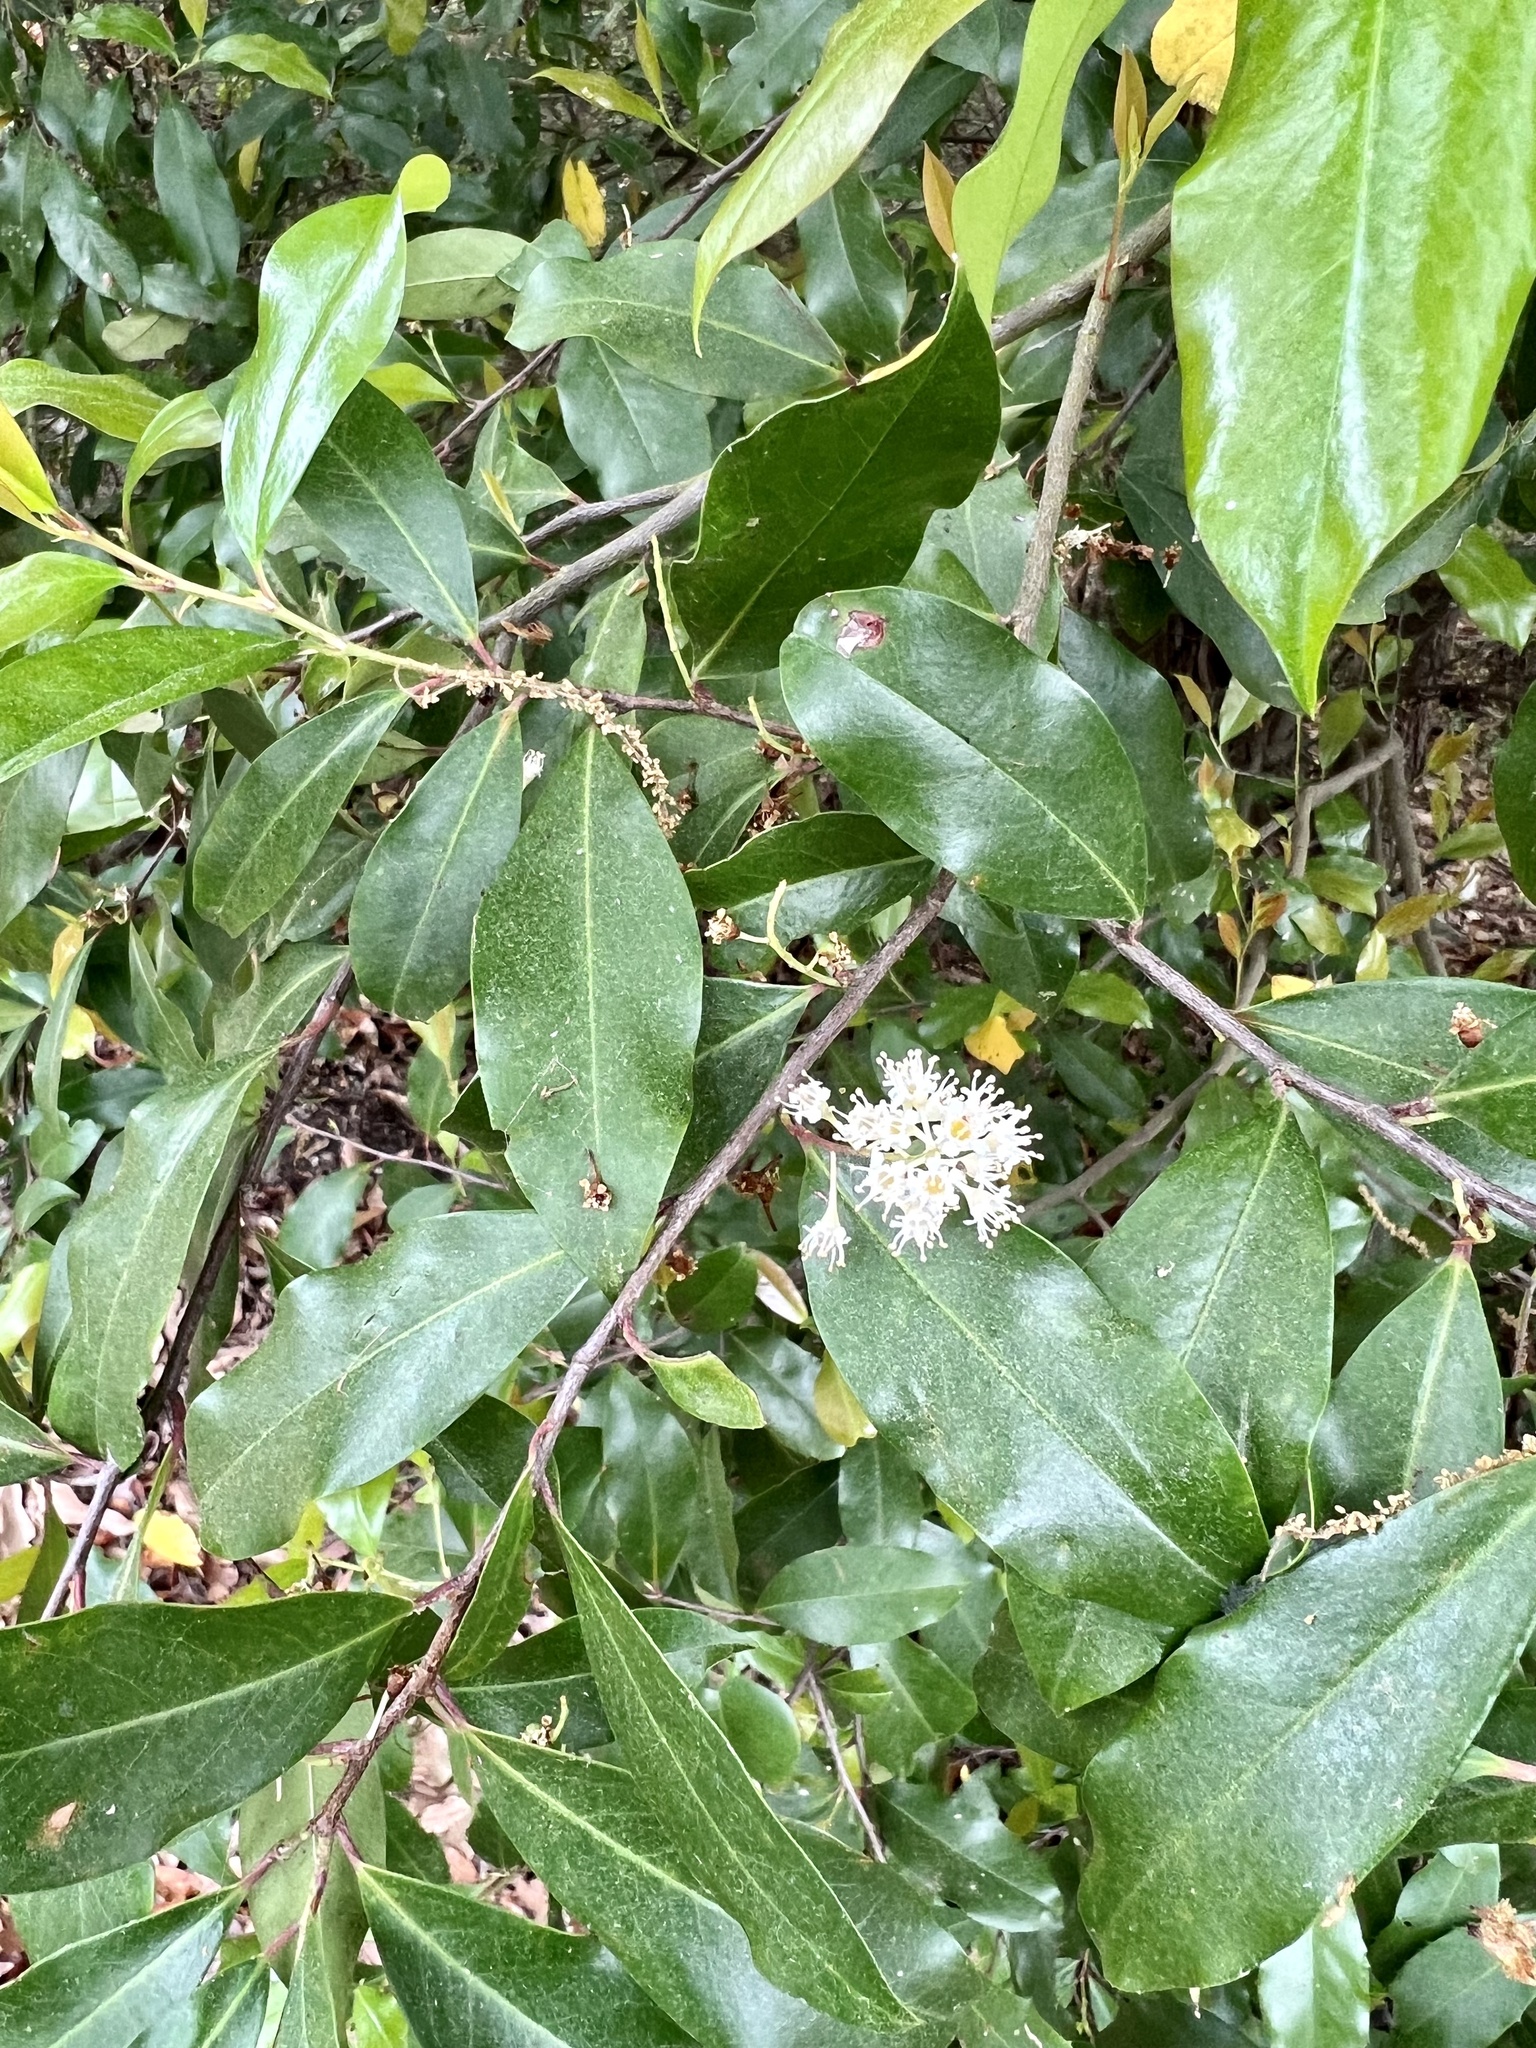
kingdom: Plantae
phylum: Tracheophyta
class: Magnoliopsida
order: Rosales
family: Rosaceae
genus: Prunus
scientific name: Prunus caroliniana
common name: Carolina laurel cherry
